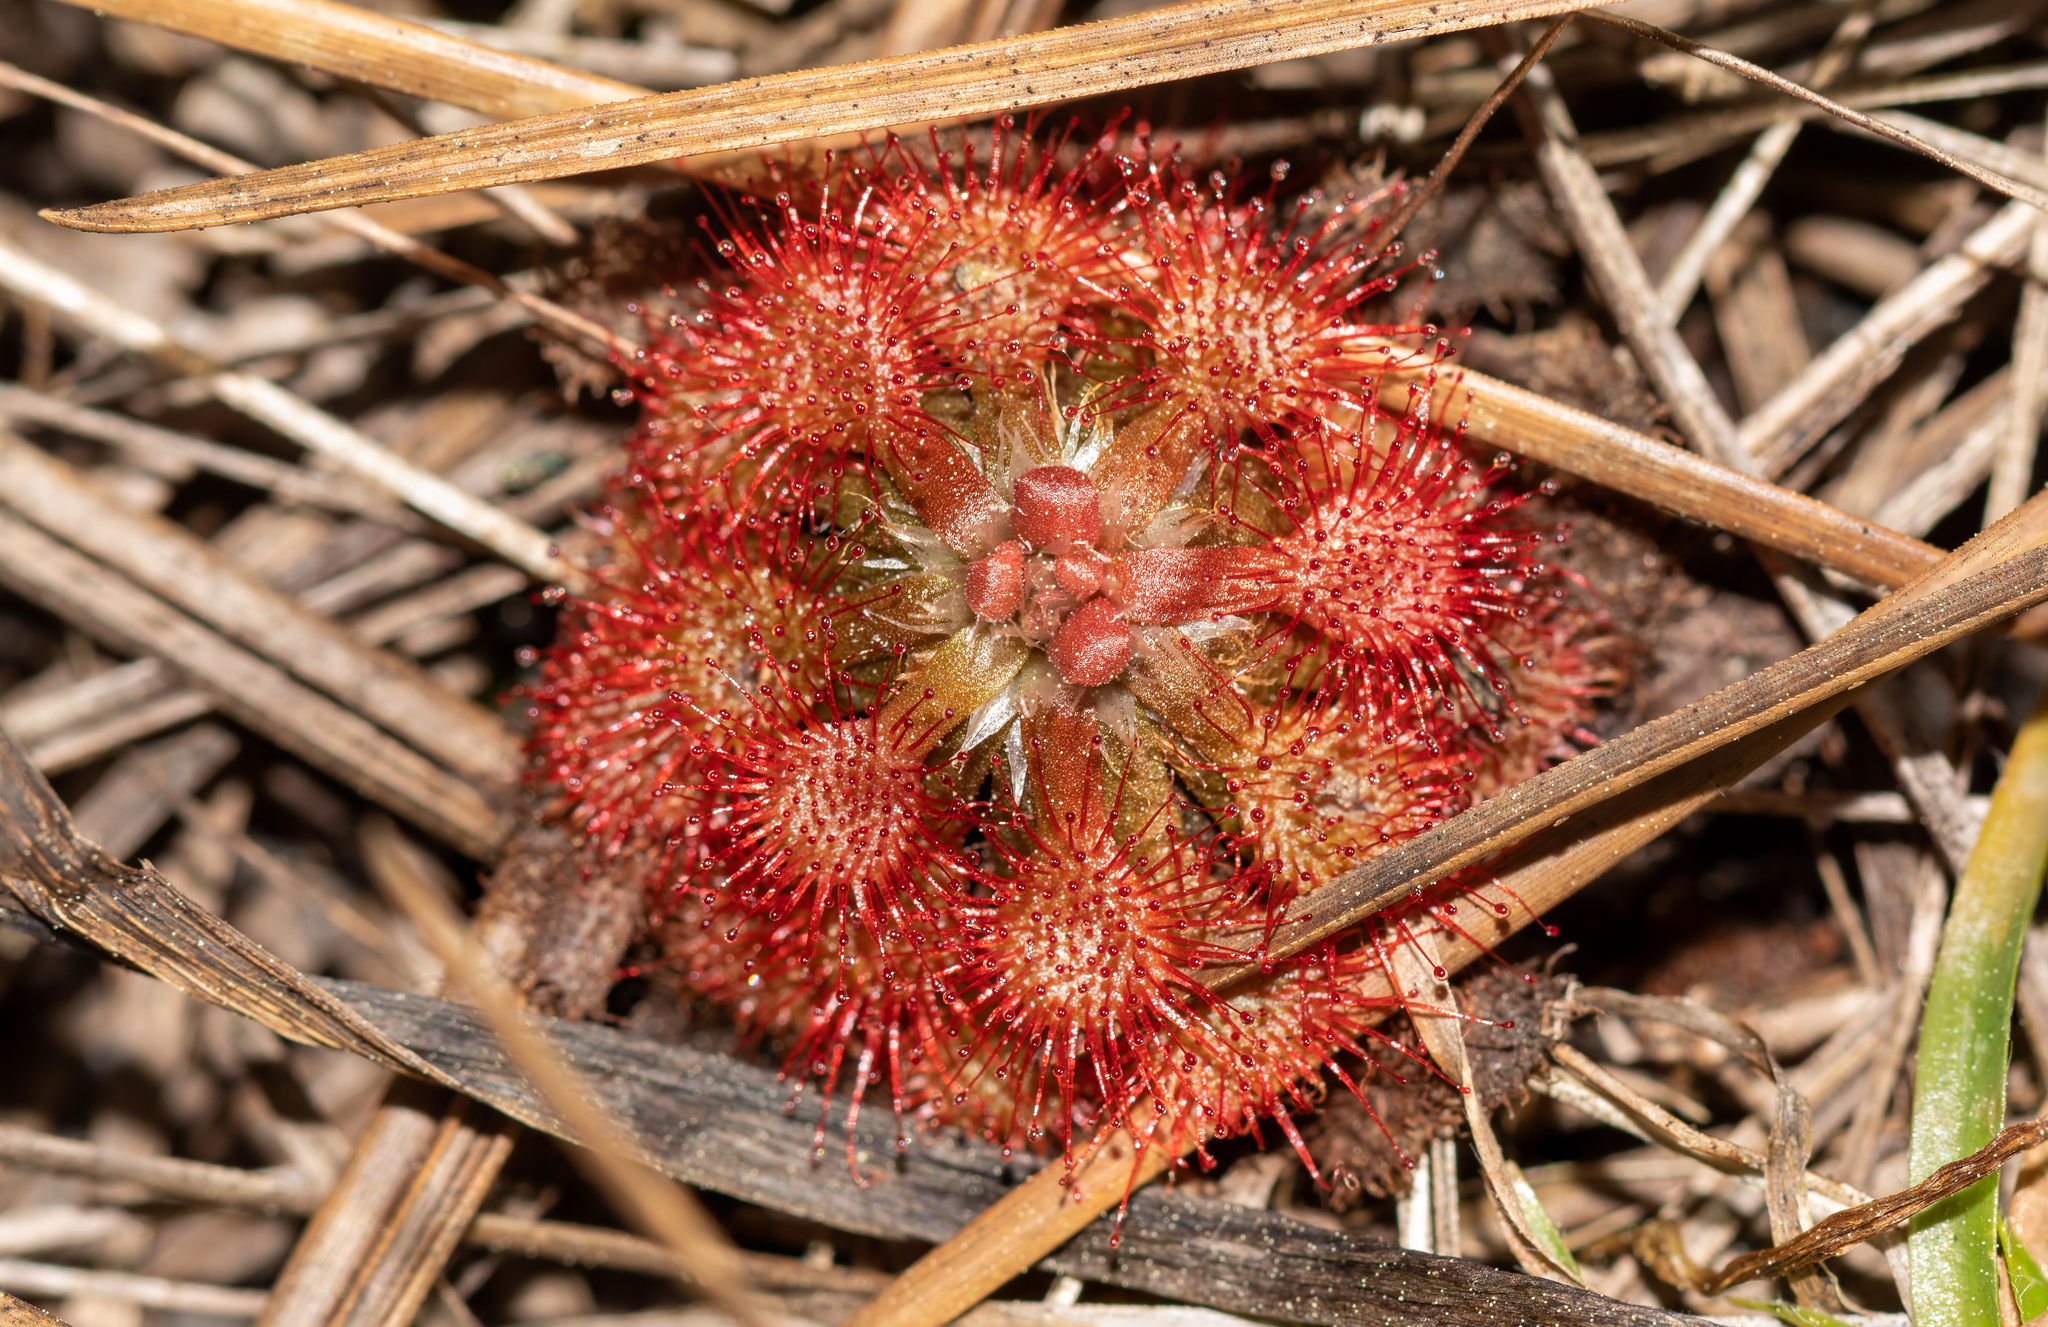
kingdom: Plantae
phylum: Tracheophyta
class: Magnoliopsida
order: Caryophyllales
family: Droseraceae
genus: Drosera
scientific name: Drosera capillaris
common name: Pink sundew
